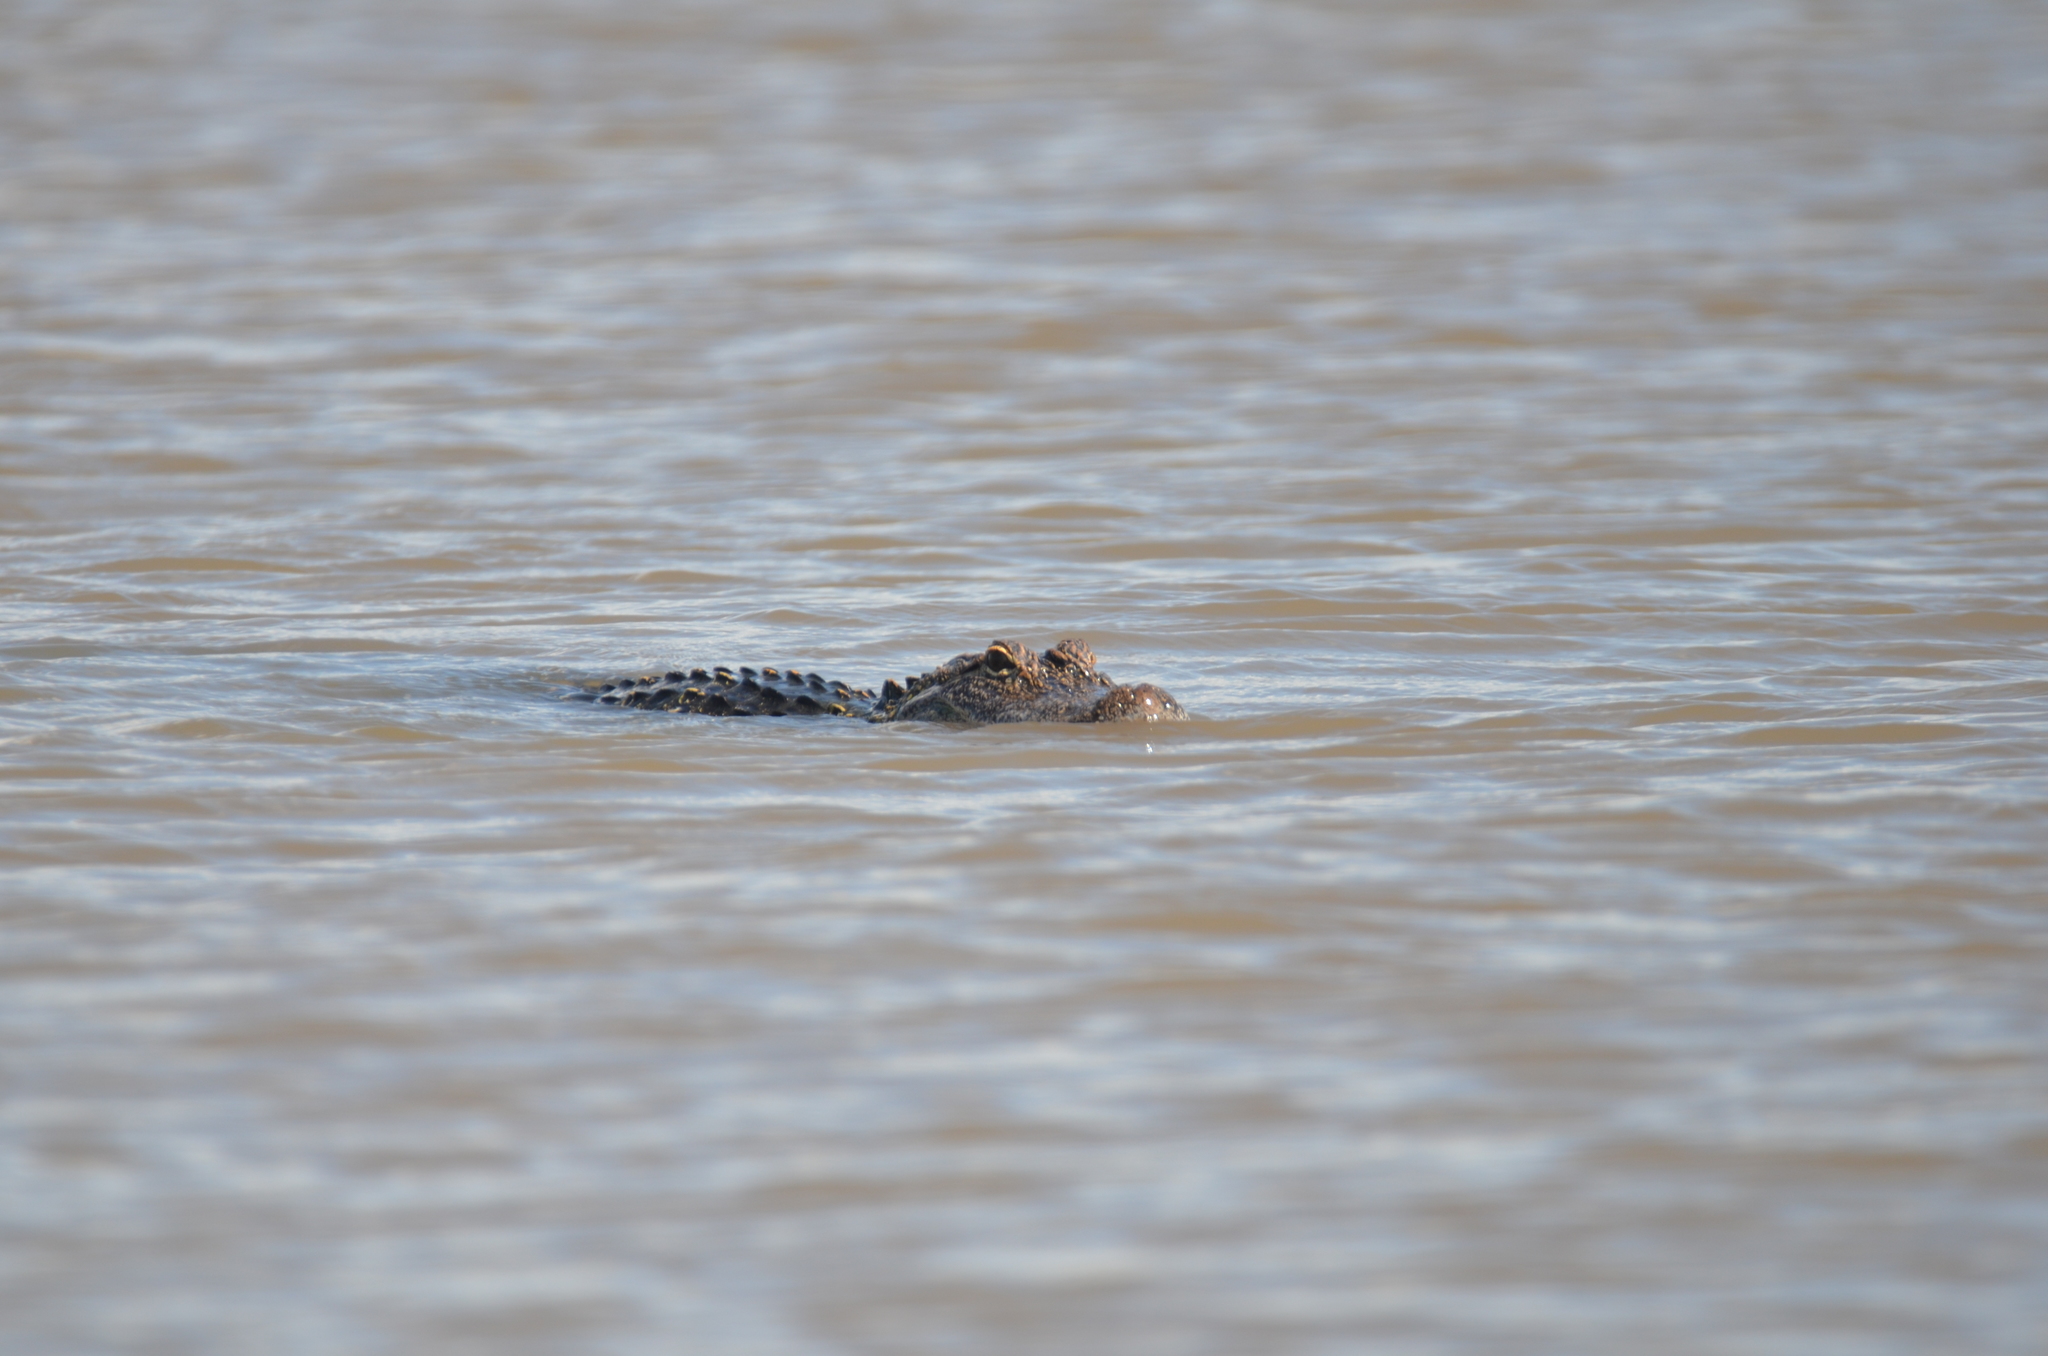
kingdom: Animalia
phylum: Chordata
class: Crocodylia
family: Alligatoridae
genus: Alligator
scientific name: Alligator mississippiensis
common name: American alligator
